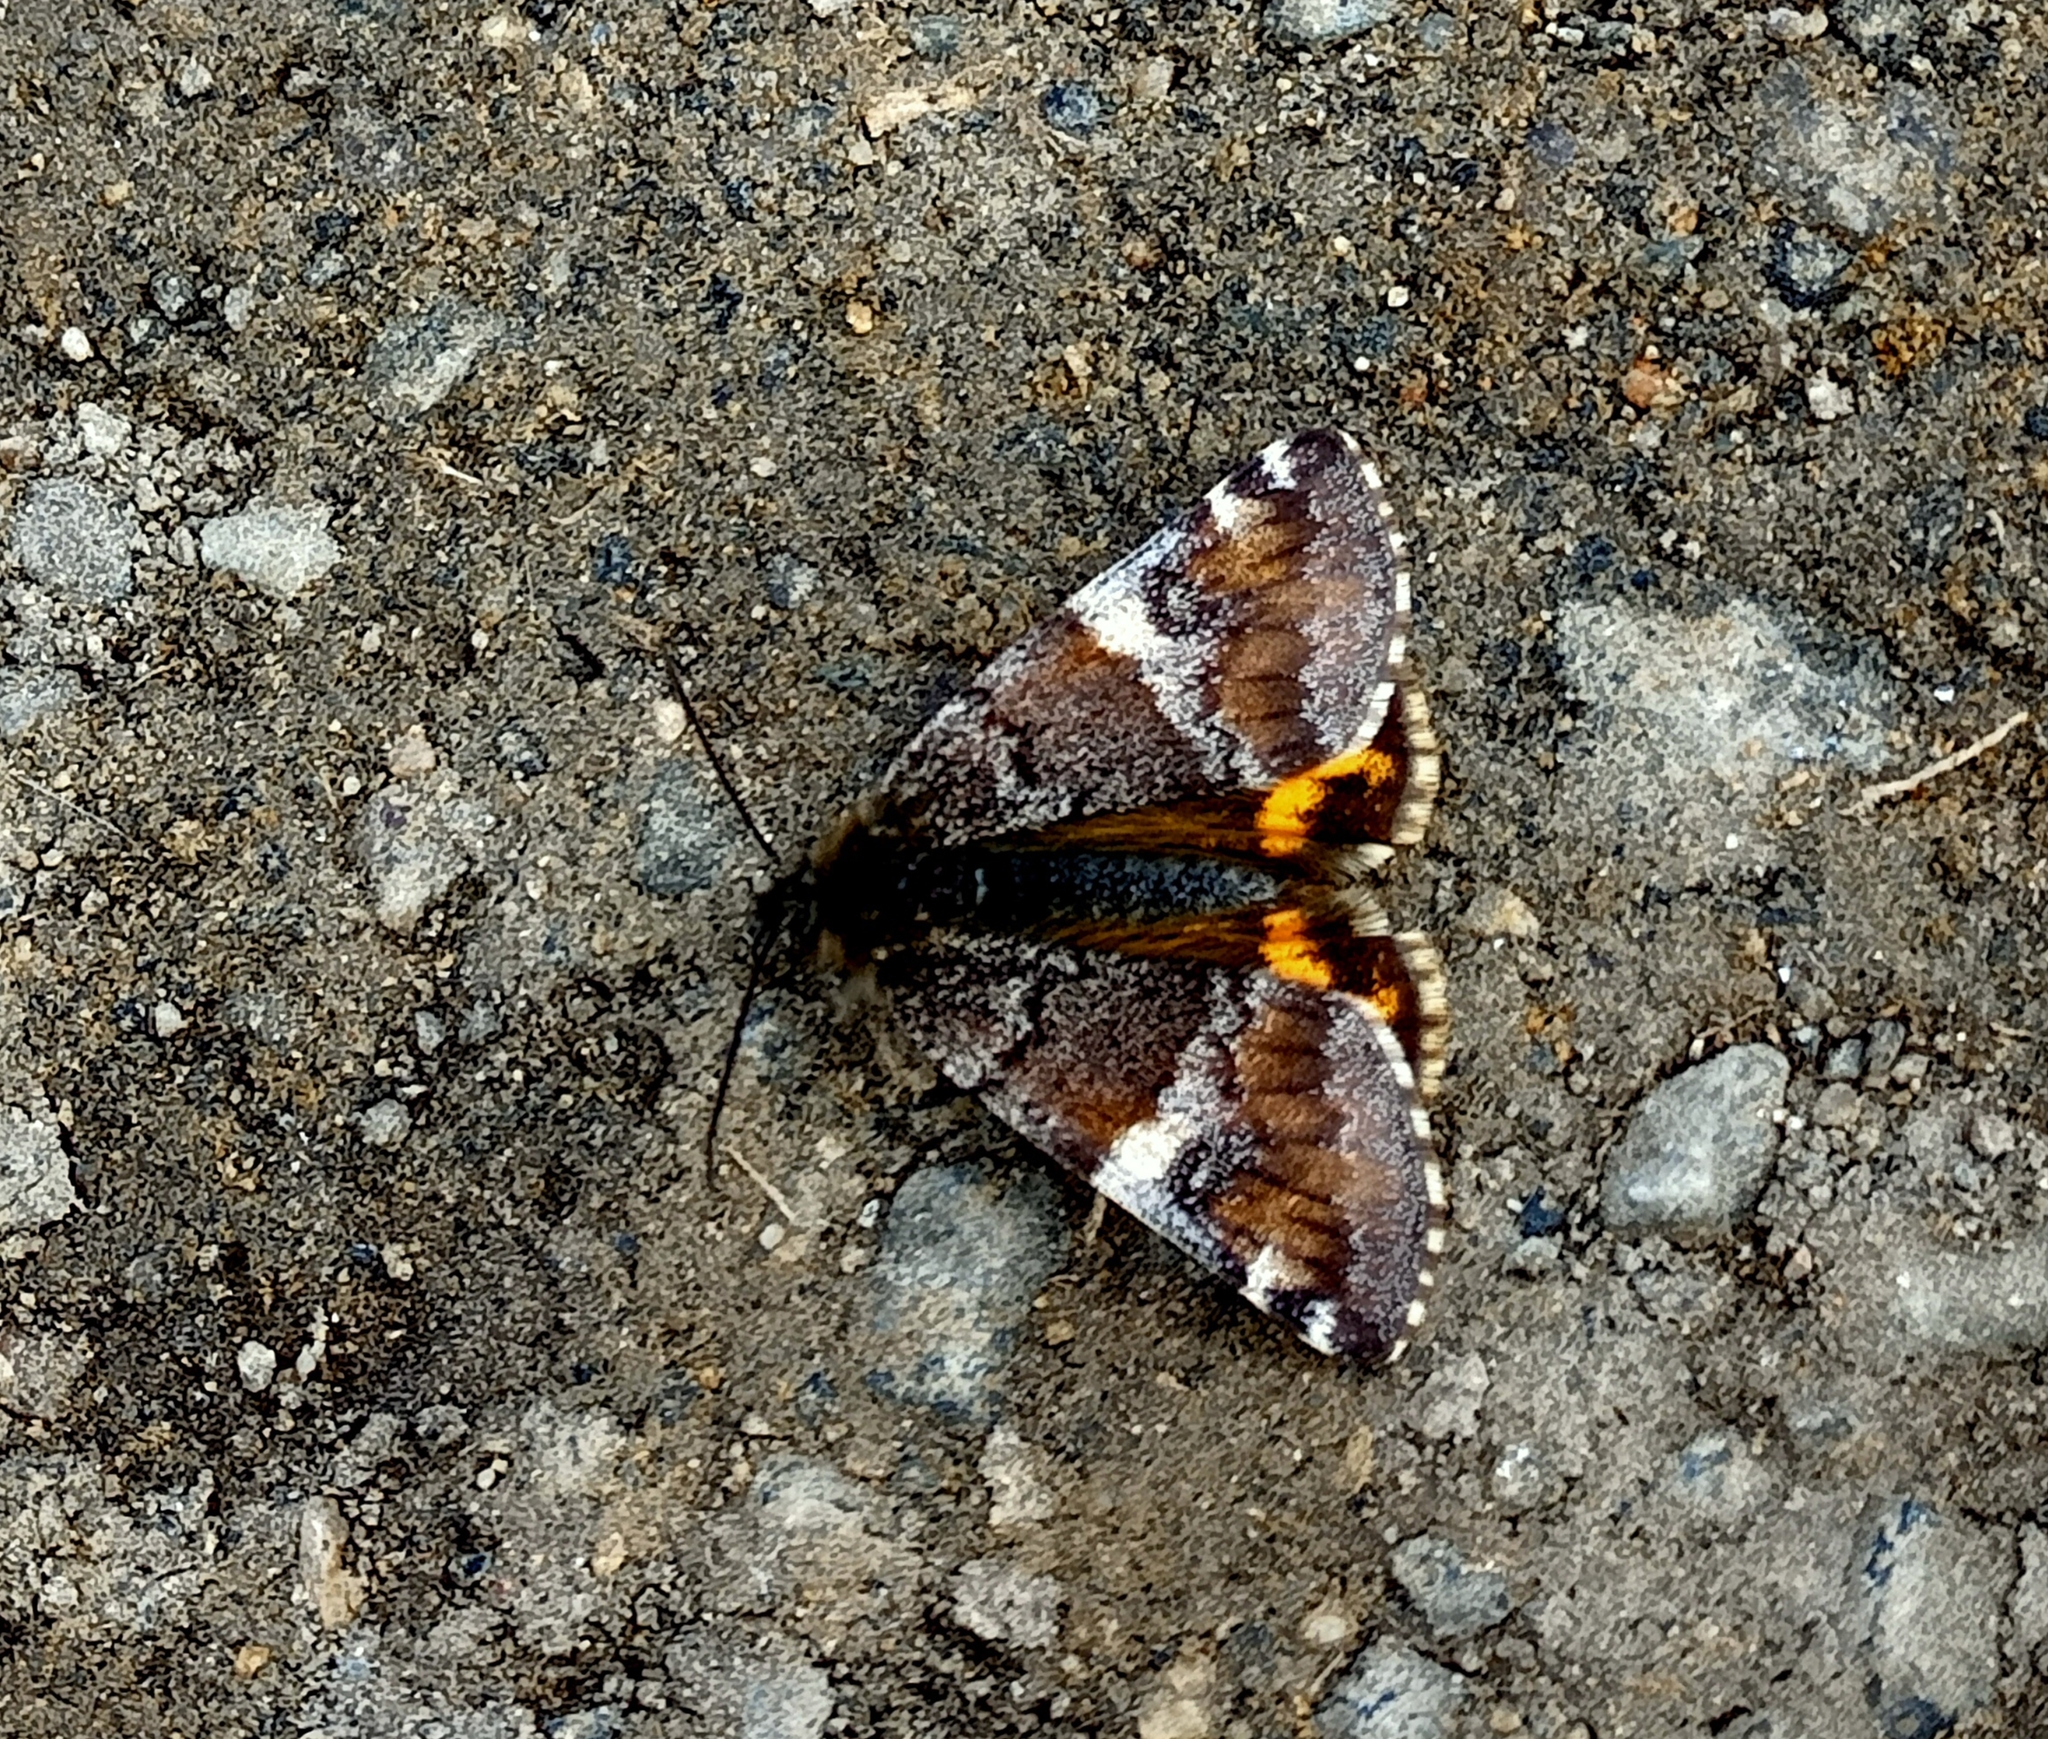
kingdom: Animalia
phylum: Arthropoda
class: Insecta
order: Lepidoptera
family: Geometridae
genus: Archiearis
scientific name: Archiearis parthenias
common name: Orange underwing
